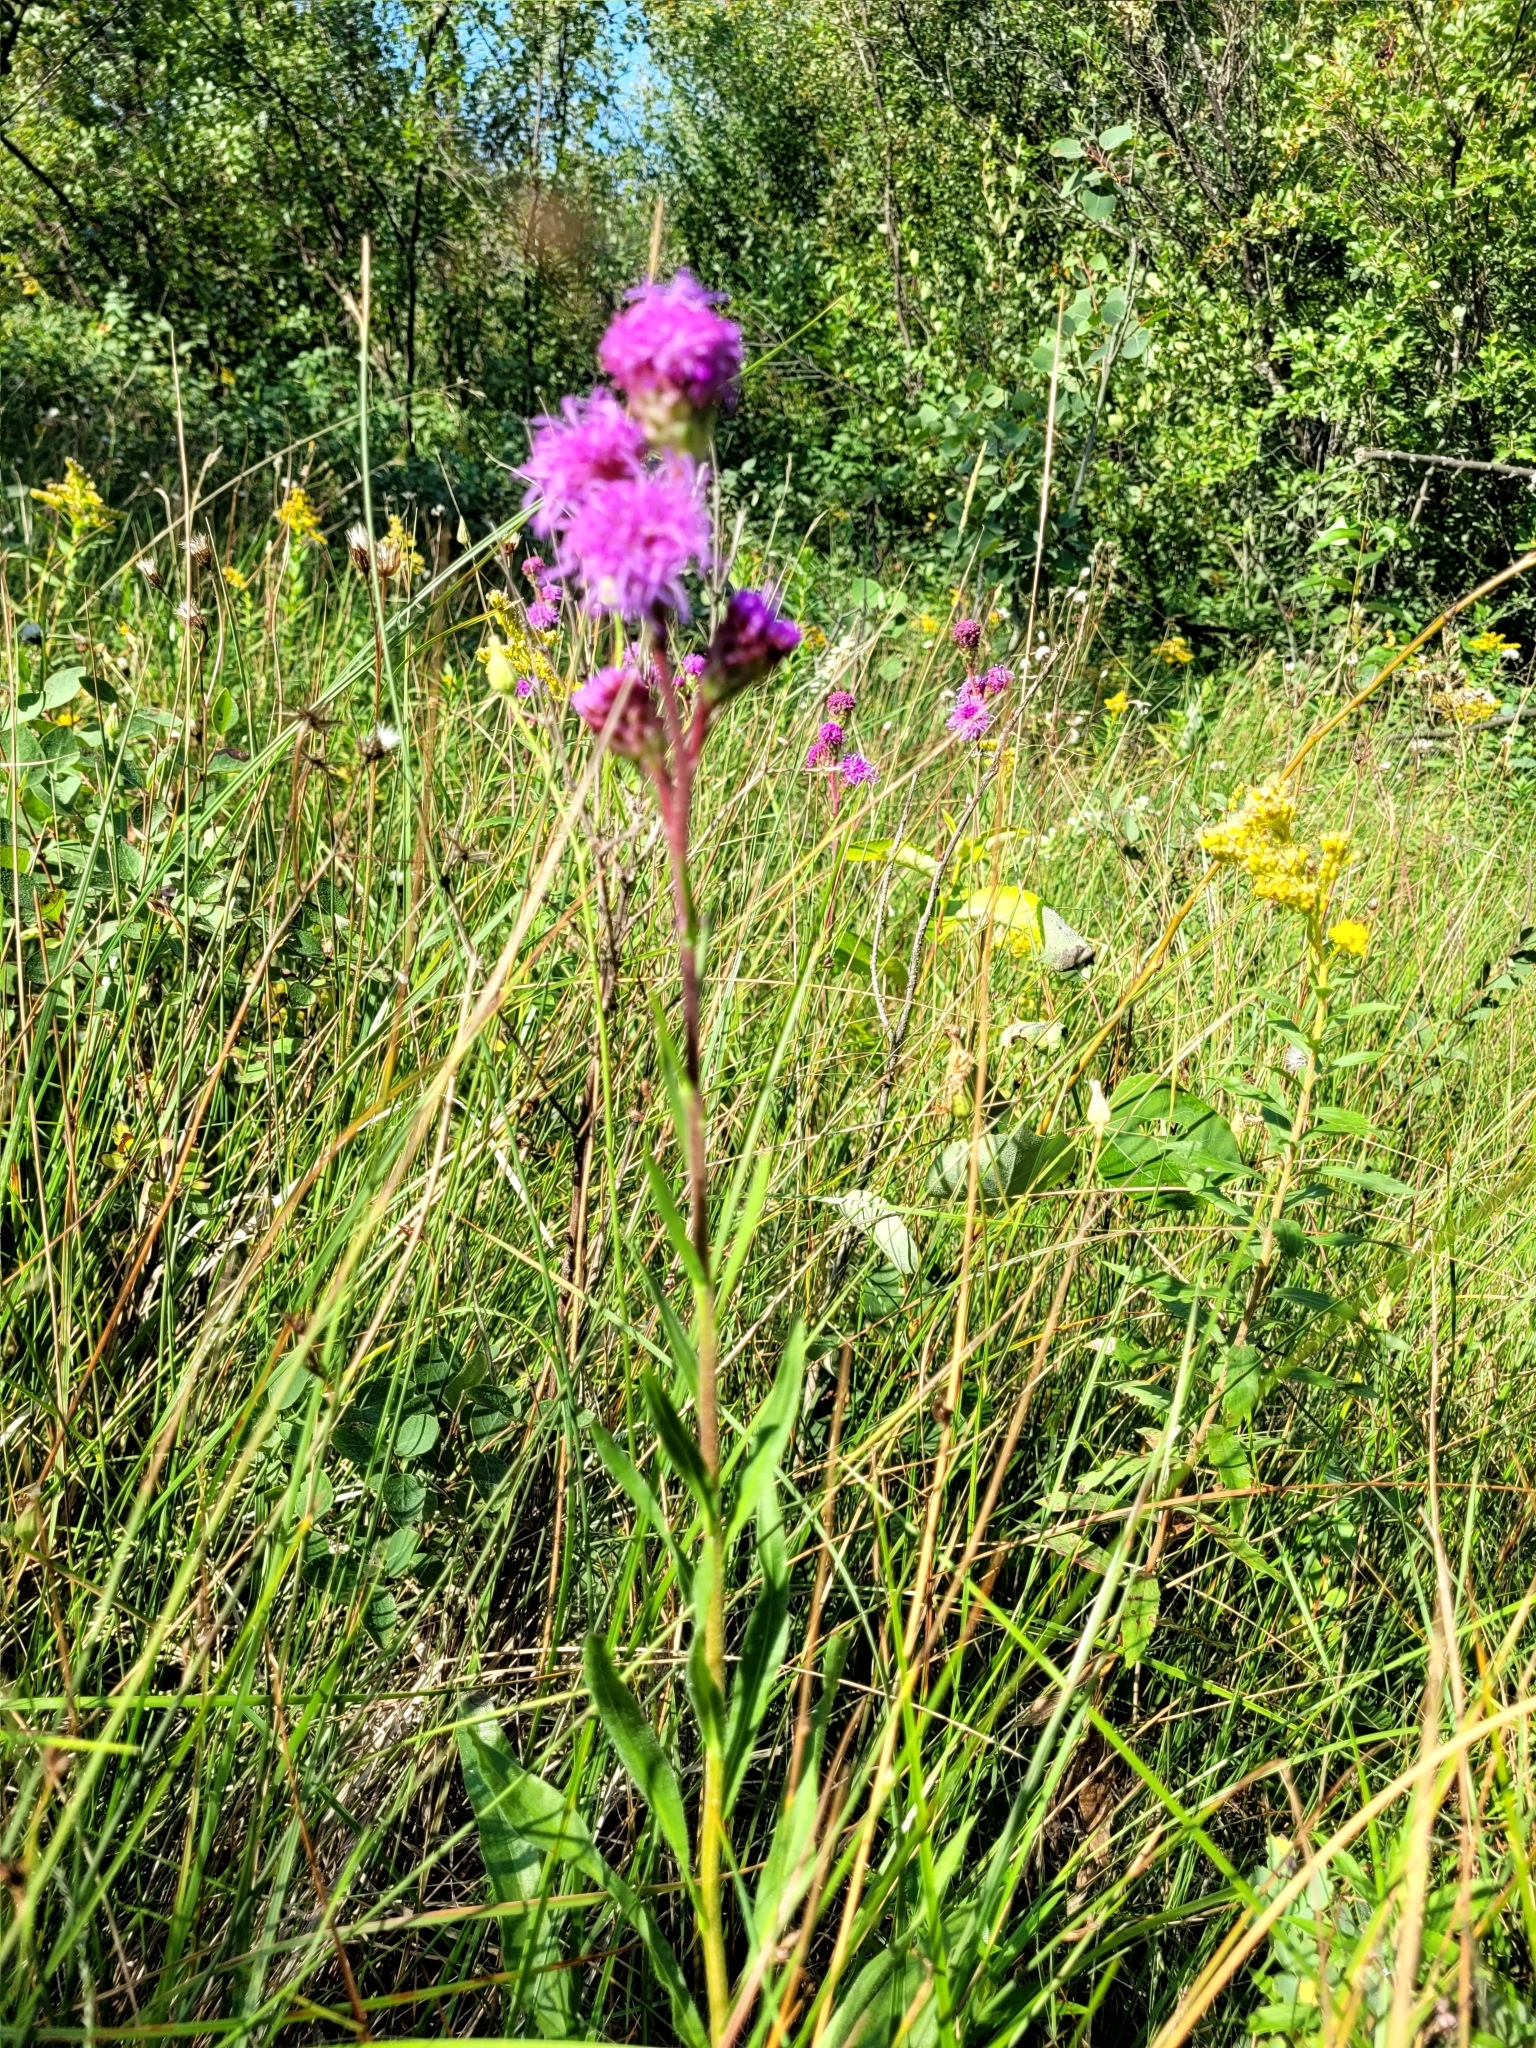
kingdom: Plantae
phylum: Tracheophyta
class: Magnoliopsida
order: Asterales
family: Asteraceae
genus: Liatris
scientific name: Liatris ligulistylis
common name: Northern plains gayfeather
